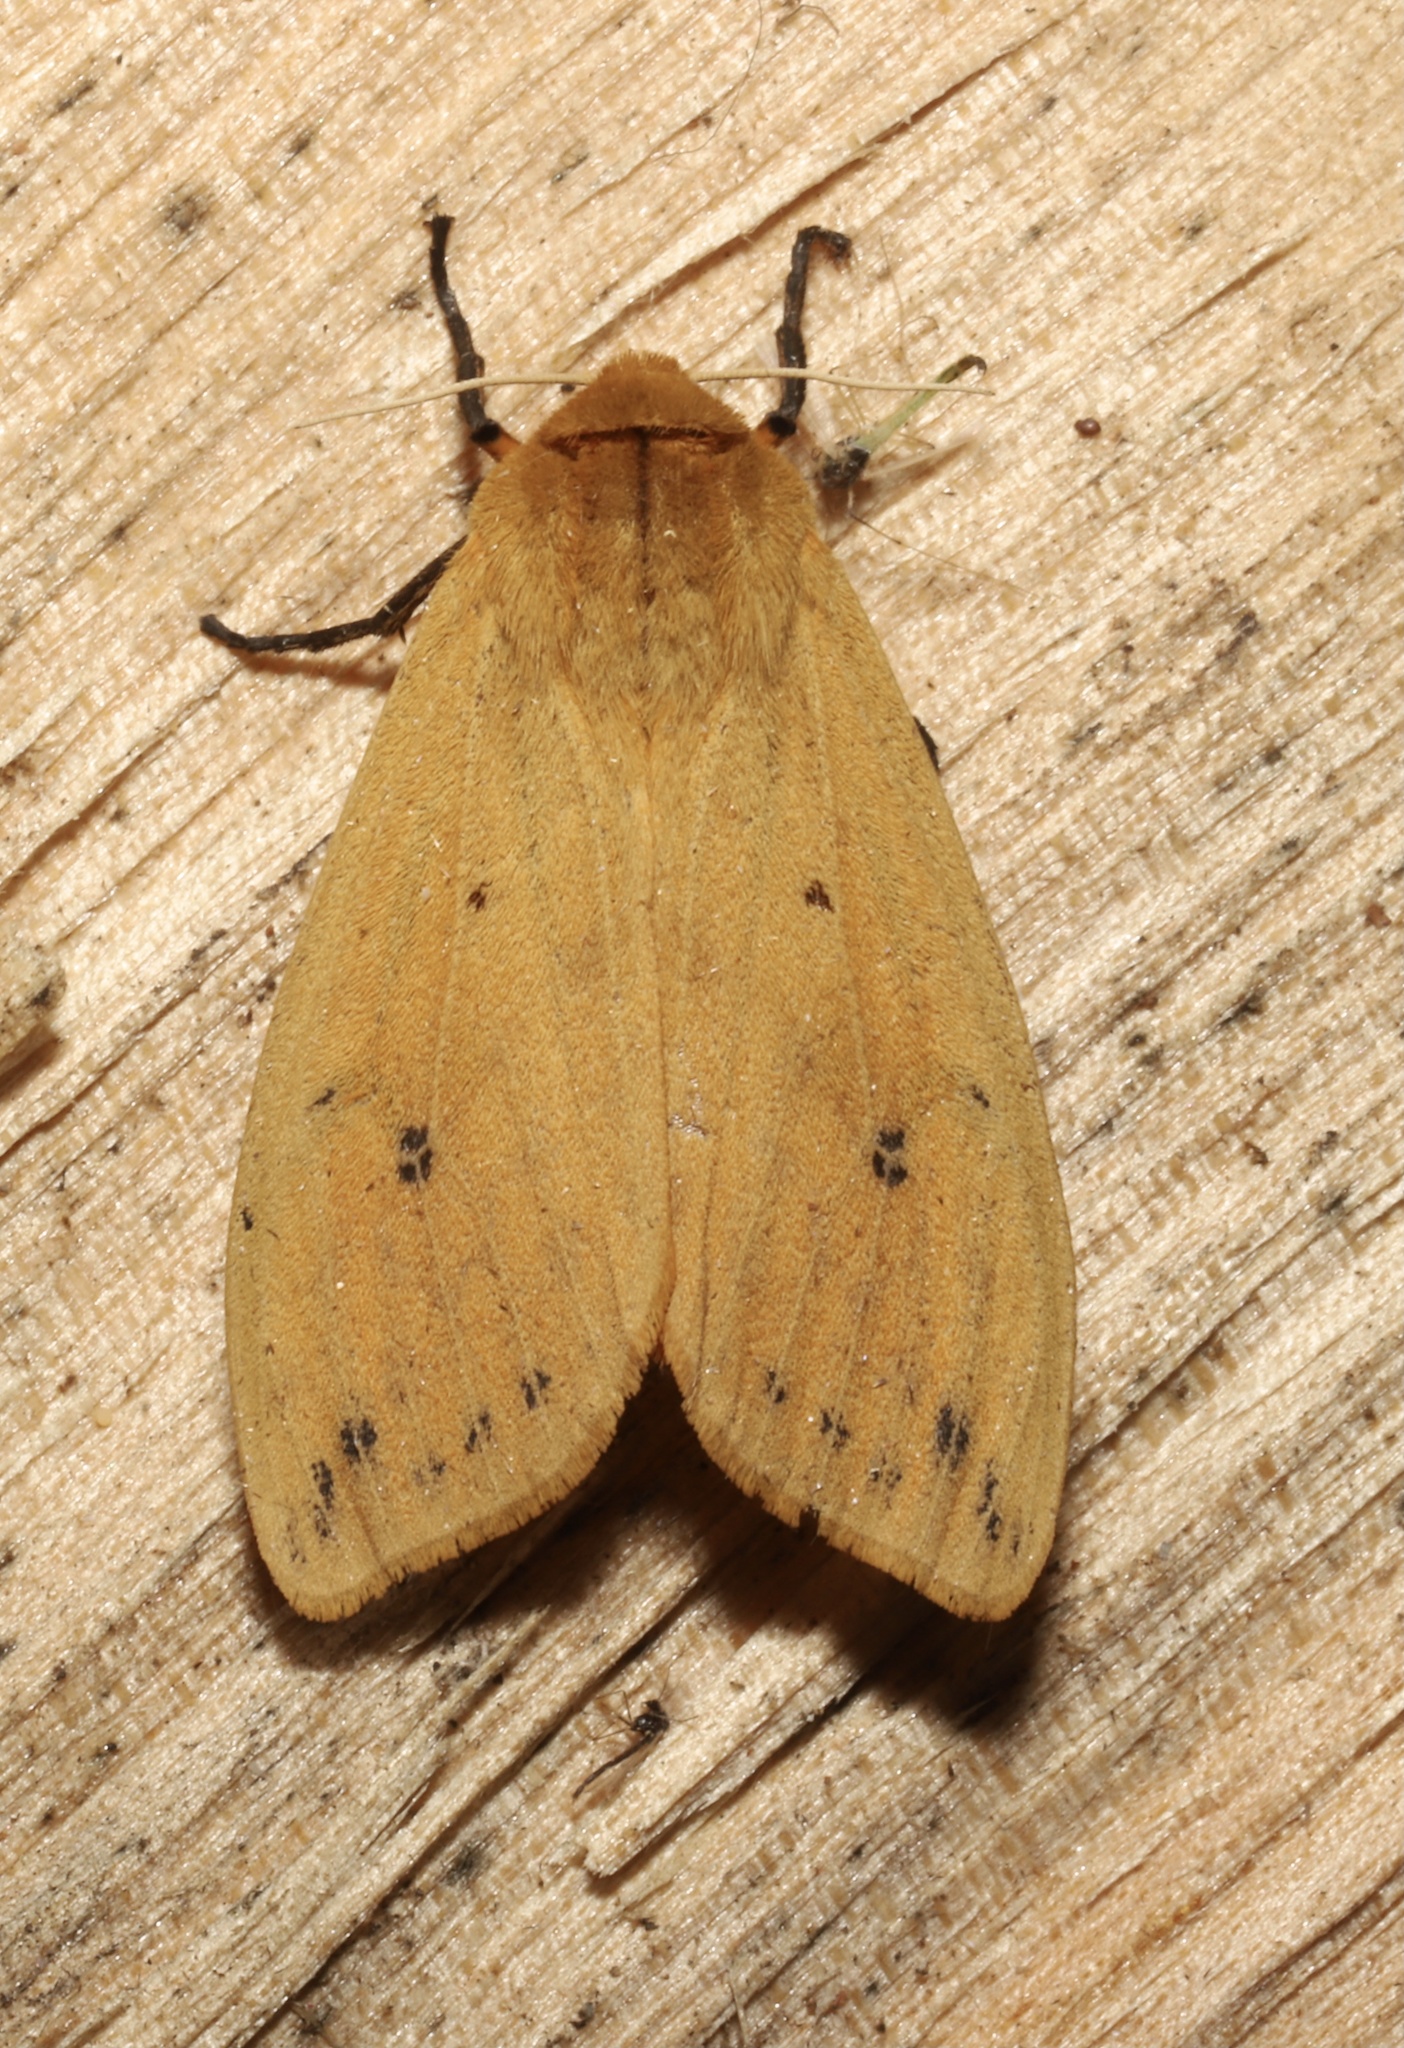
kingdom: Animalia
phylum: Arthropoda
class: Insecta
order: Lepidoptera
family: Erebidae
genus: Pyrrharctia
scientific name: Pyrrharctia isabella
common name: Isabella tiger moth
